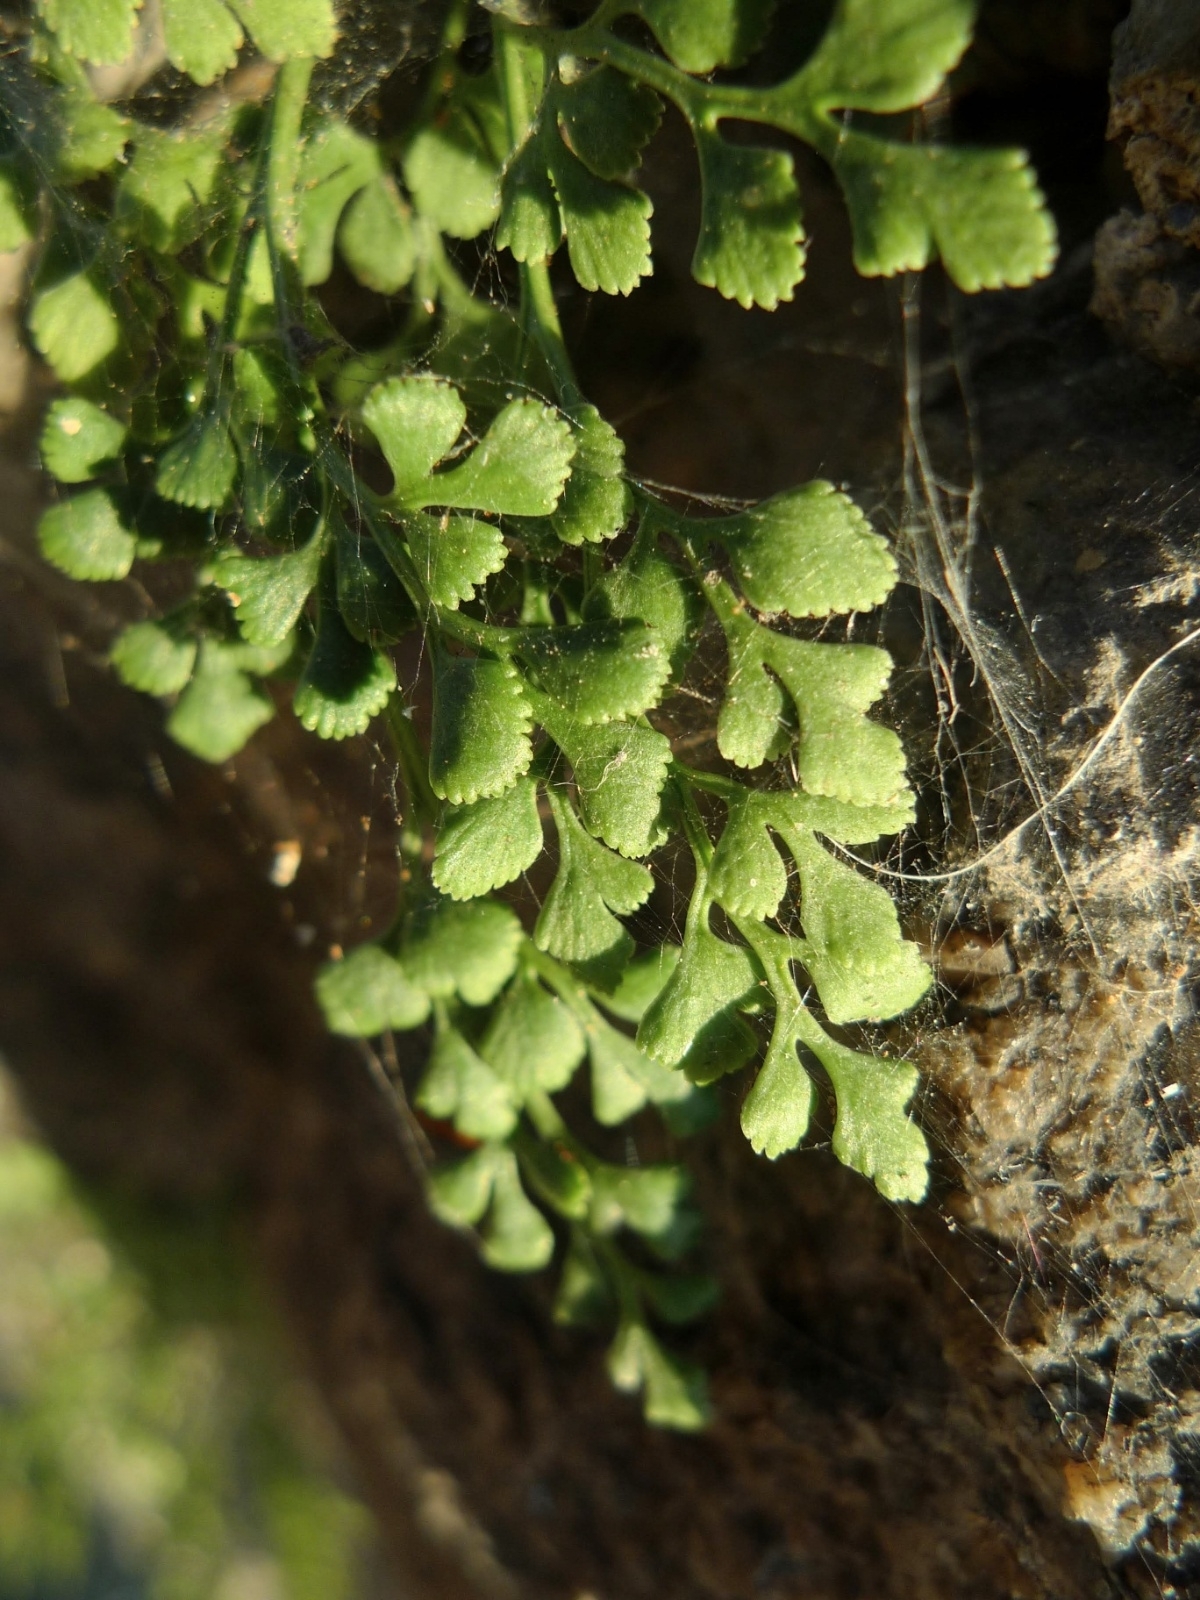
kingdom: Plantae
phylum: Tracheophyta
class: Polypodiopsida
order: Polypodiales
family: Aspleniaceae
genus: Asplenium
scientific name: Asplenium ruta-muraria
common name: Wall-rue
